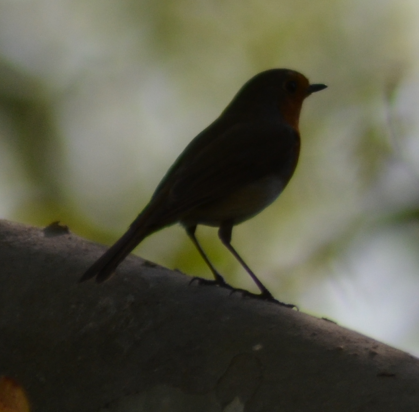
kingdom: Animalia
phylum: Chordata
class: Aves
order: Passeriformes
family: Muscicapidae
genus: Erithacus
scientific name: Erithacus rubecula
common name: European robin
